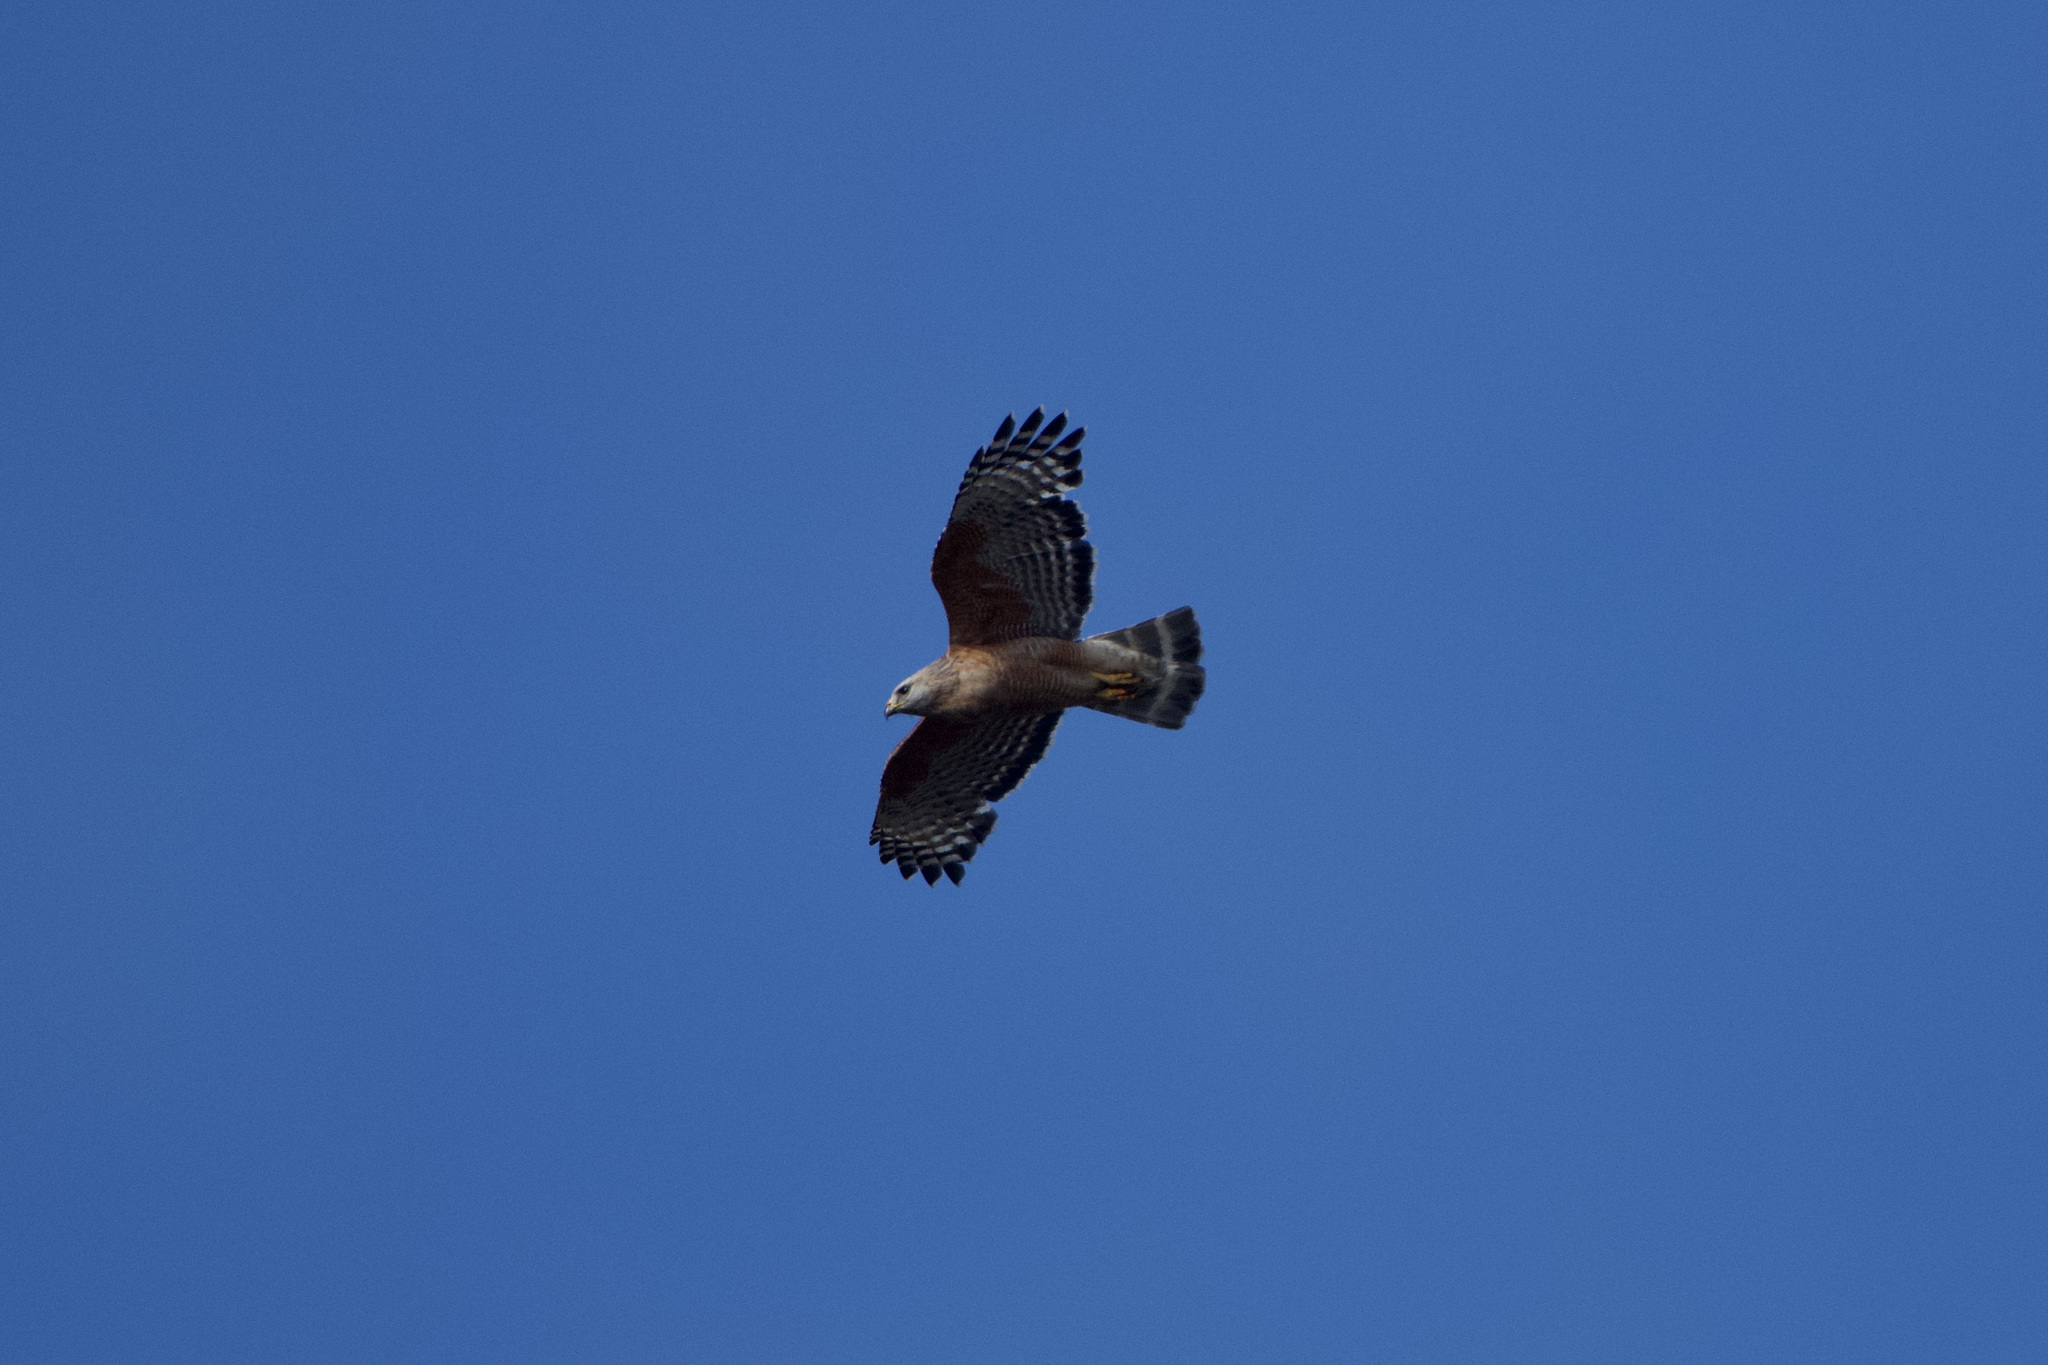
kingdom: Animalia
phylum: Chordata
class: Aves
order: Accipitriformes
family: Accipitridae
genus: Buteo
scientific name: Buteo lineatus
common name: Red-shouldered hawk
